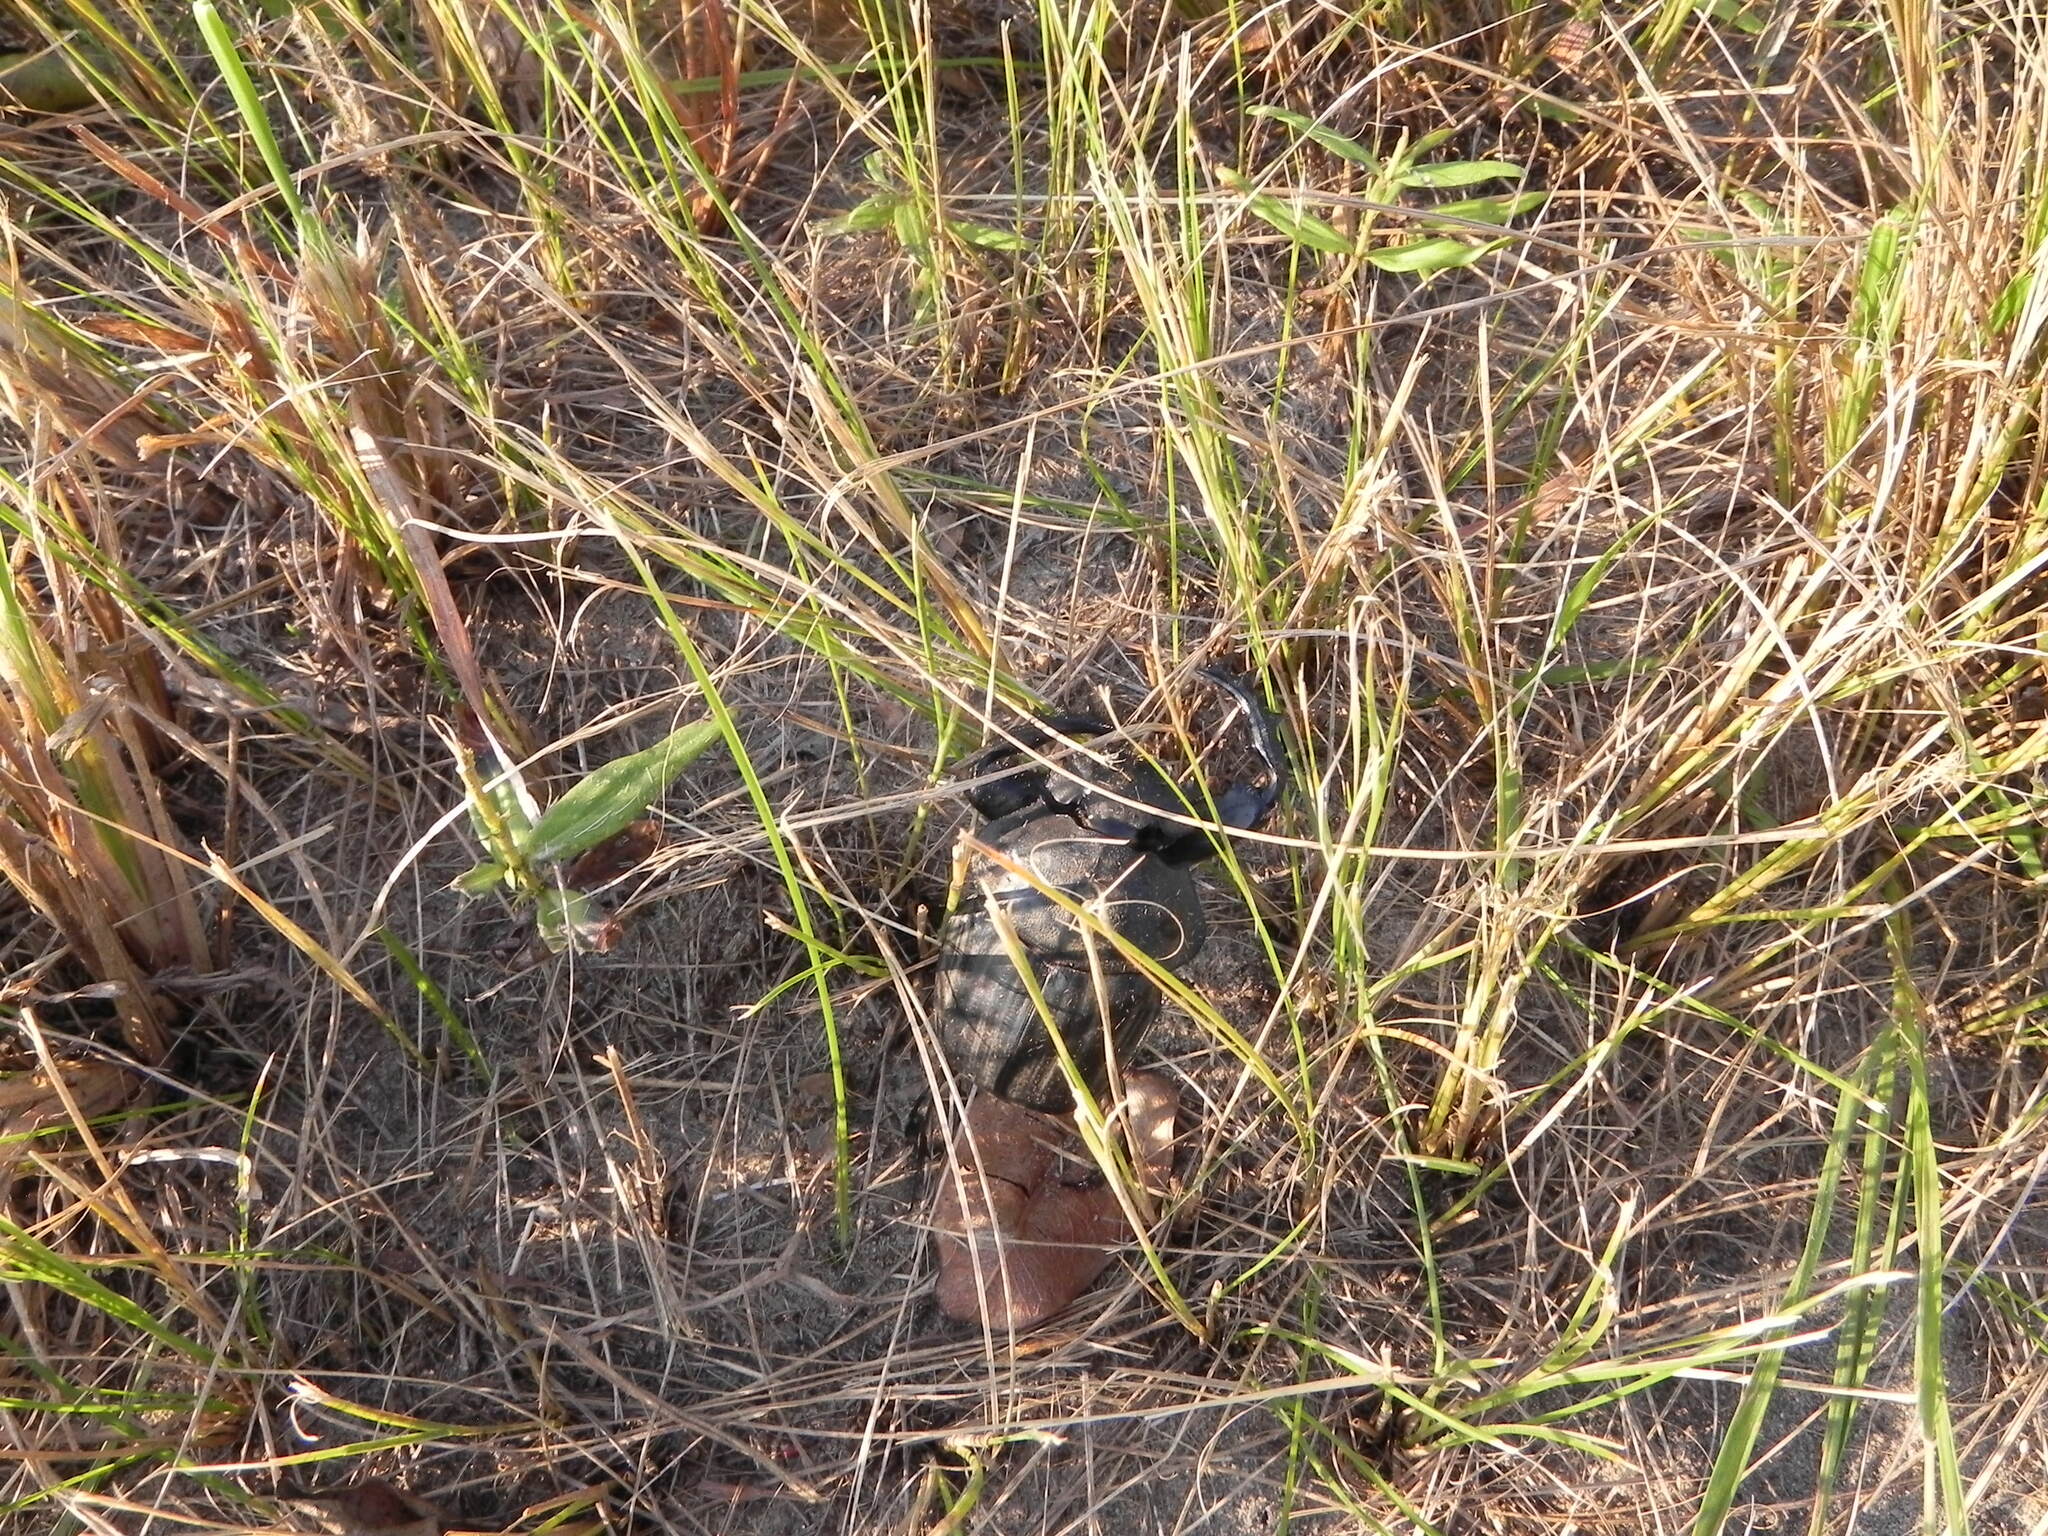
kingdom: Animalia
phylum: Arthropoda
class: Insecta
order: Coleoptera
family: Scarabaeidae
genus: Pachylomera
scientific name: Pachylomera femoralis
